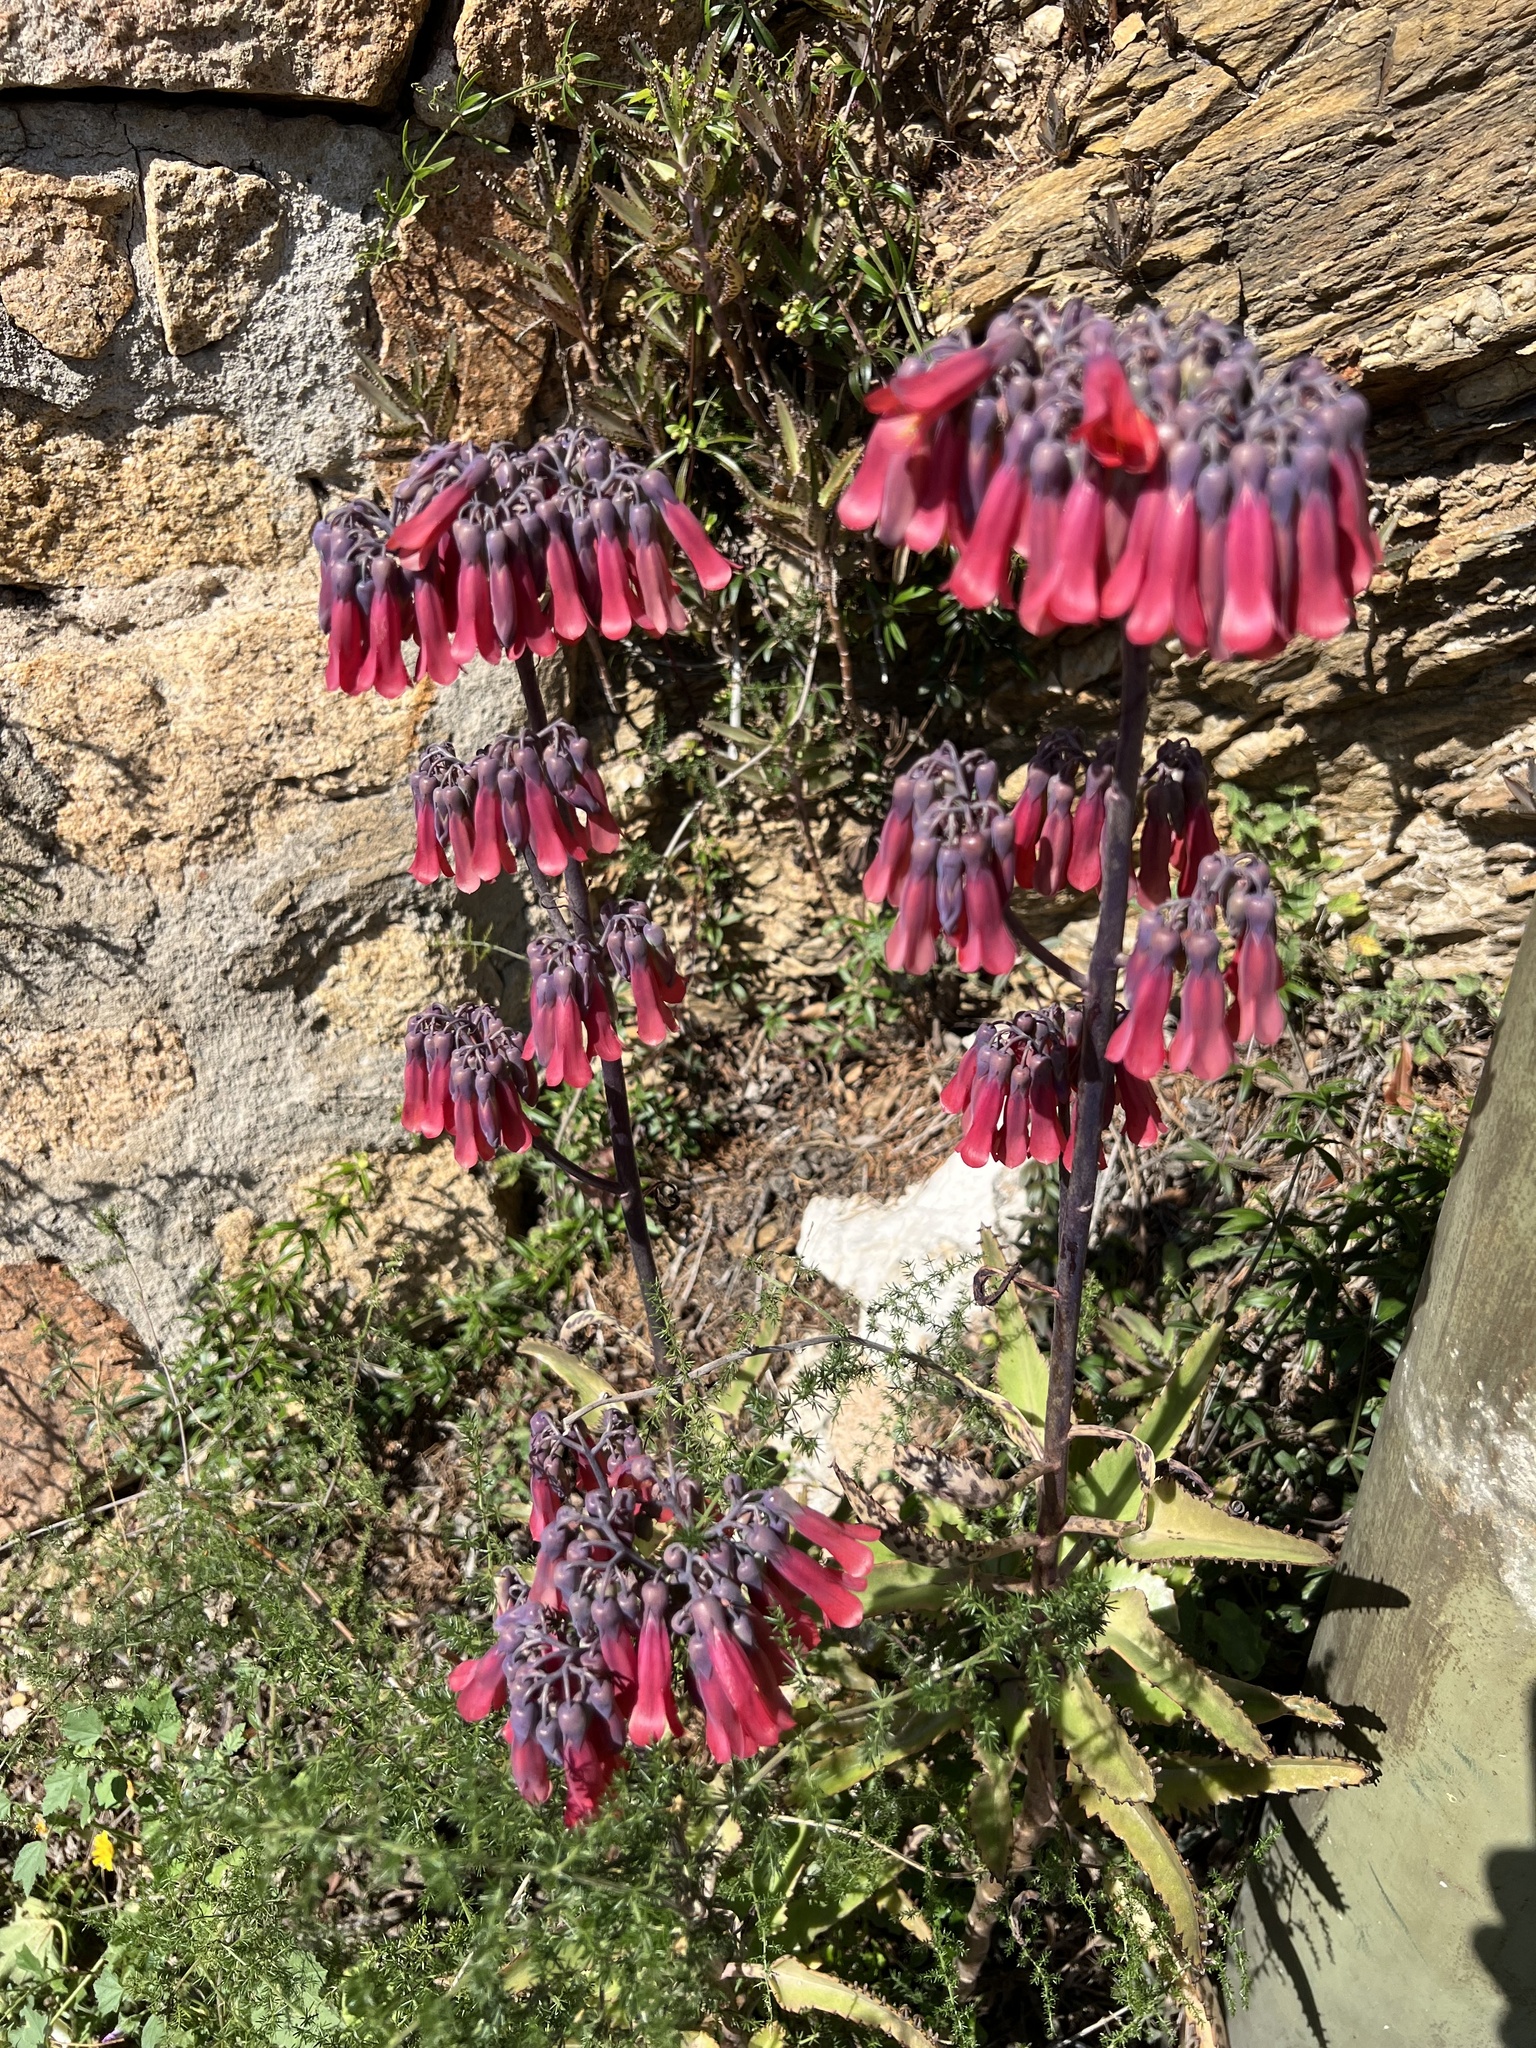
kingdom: Plantae
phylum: Tracheophyta
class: Magnoliopsida
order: Saxifragales
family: Crassulaceae
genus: Kalanchoe
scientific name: Kalanchoe daigremontiana
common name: Devil's backbone
